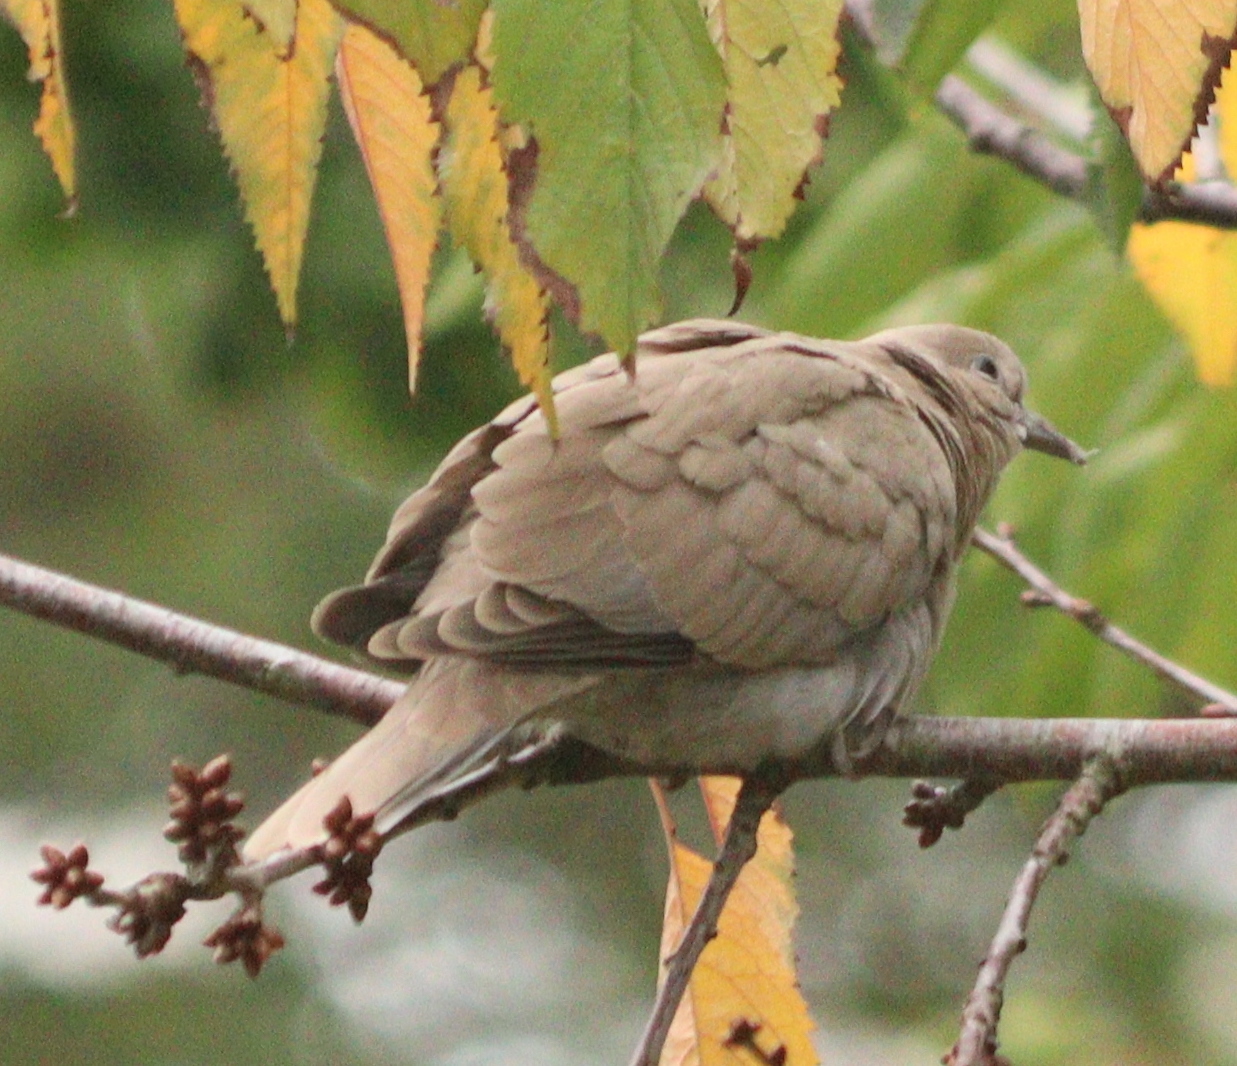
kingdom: Animalia
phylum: Chordata
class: Aves
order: Columbiformes
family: Columbidae
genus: Streptopelia
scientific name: Streptopelia decaocto
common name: Eurasian collared dove
